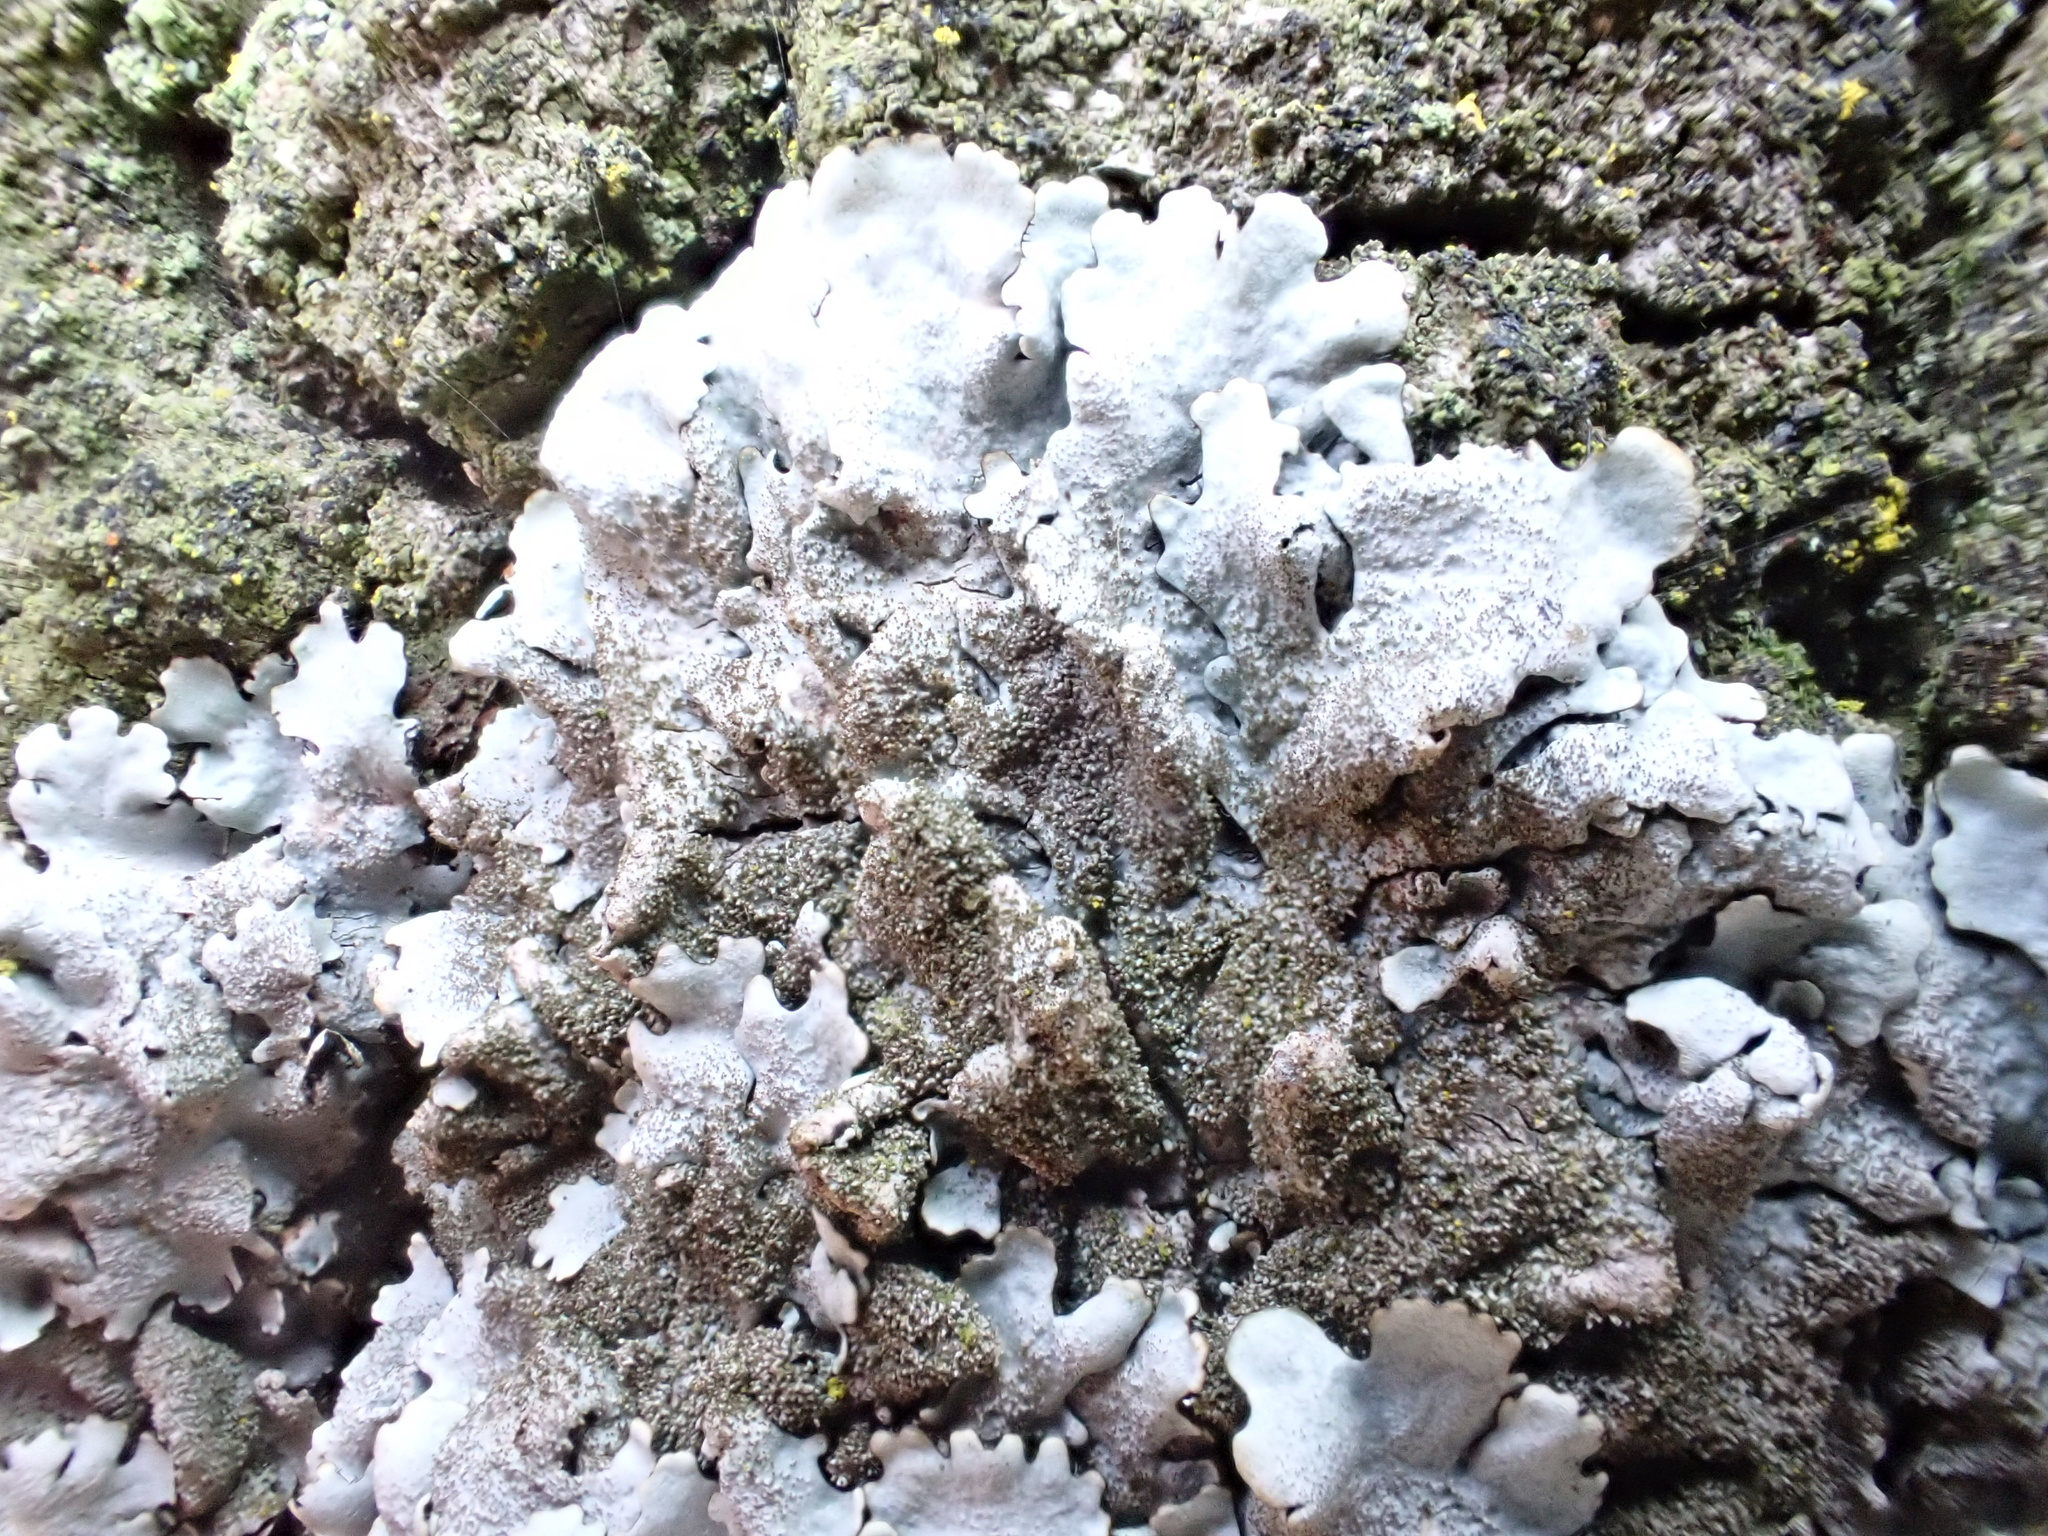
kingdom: Fungi
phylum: Ascomycota
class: Lecanoromycetes
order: Lecanorales
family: Parmeliaceae
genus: Parmelina
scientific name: Parmelina tiliacea
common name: Linden shield lichen
